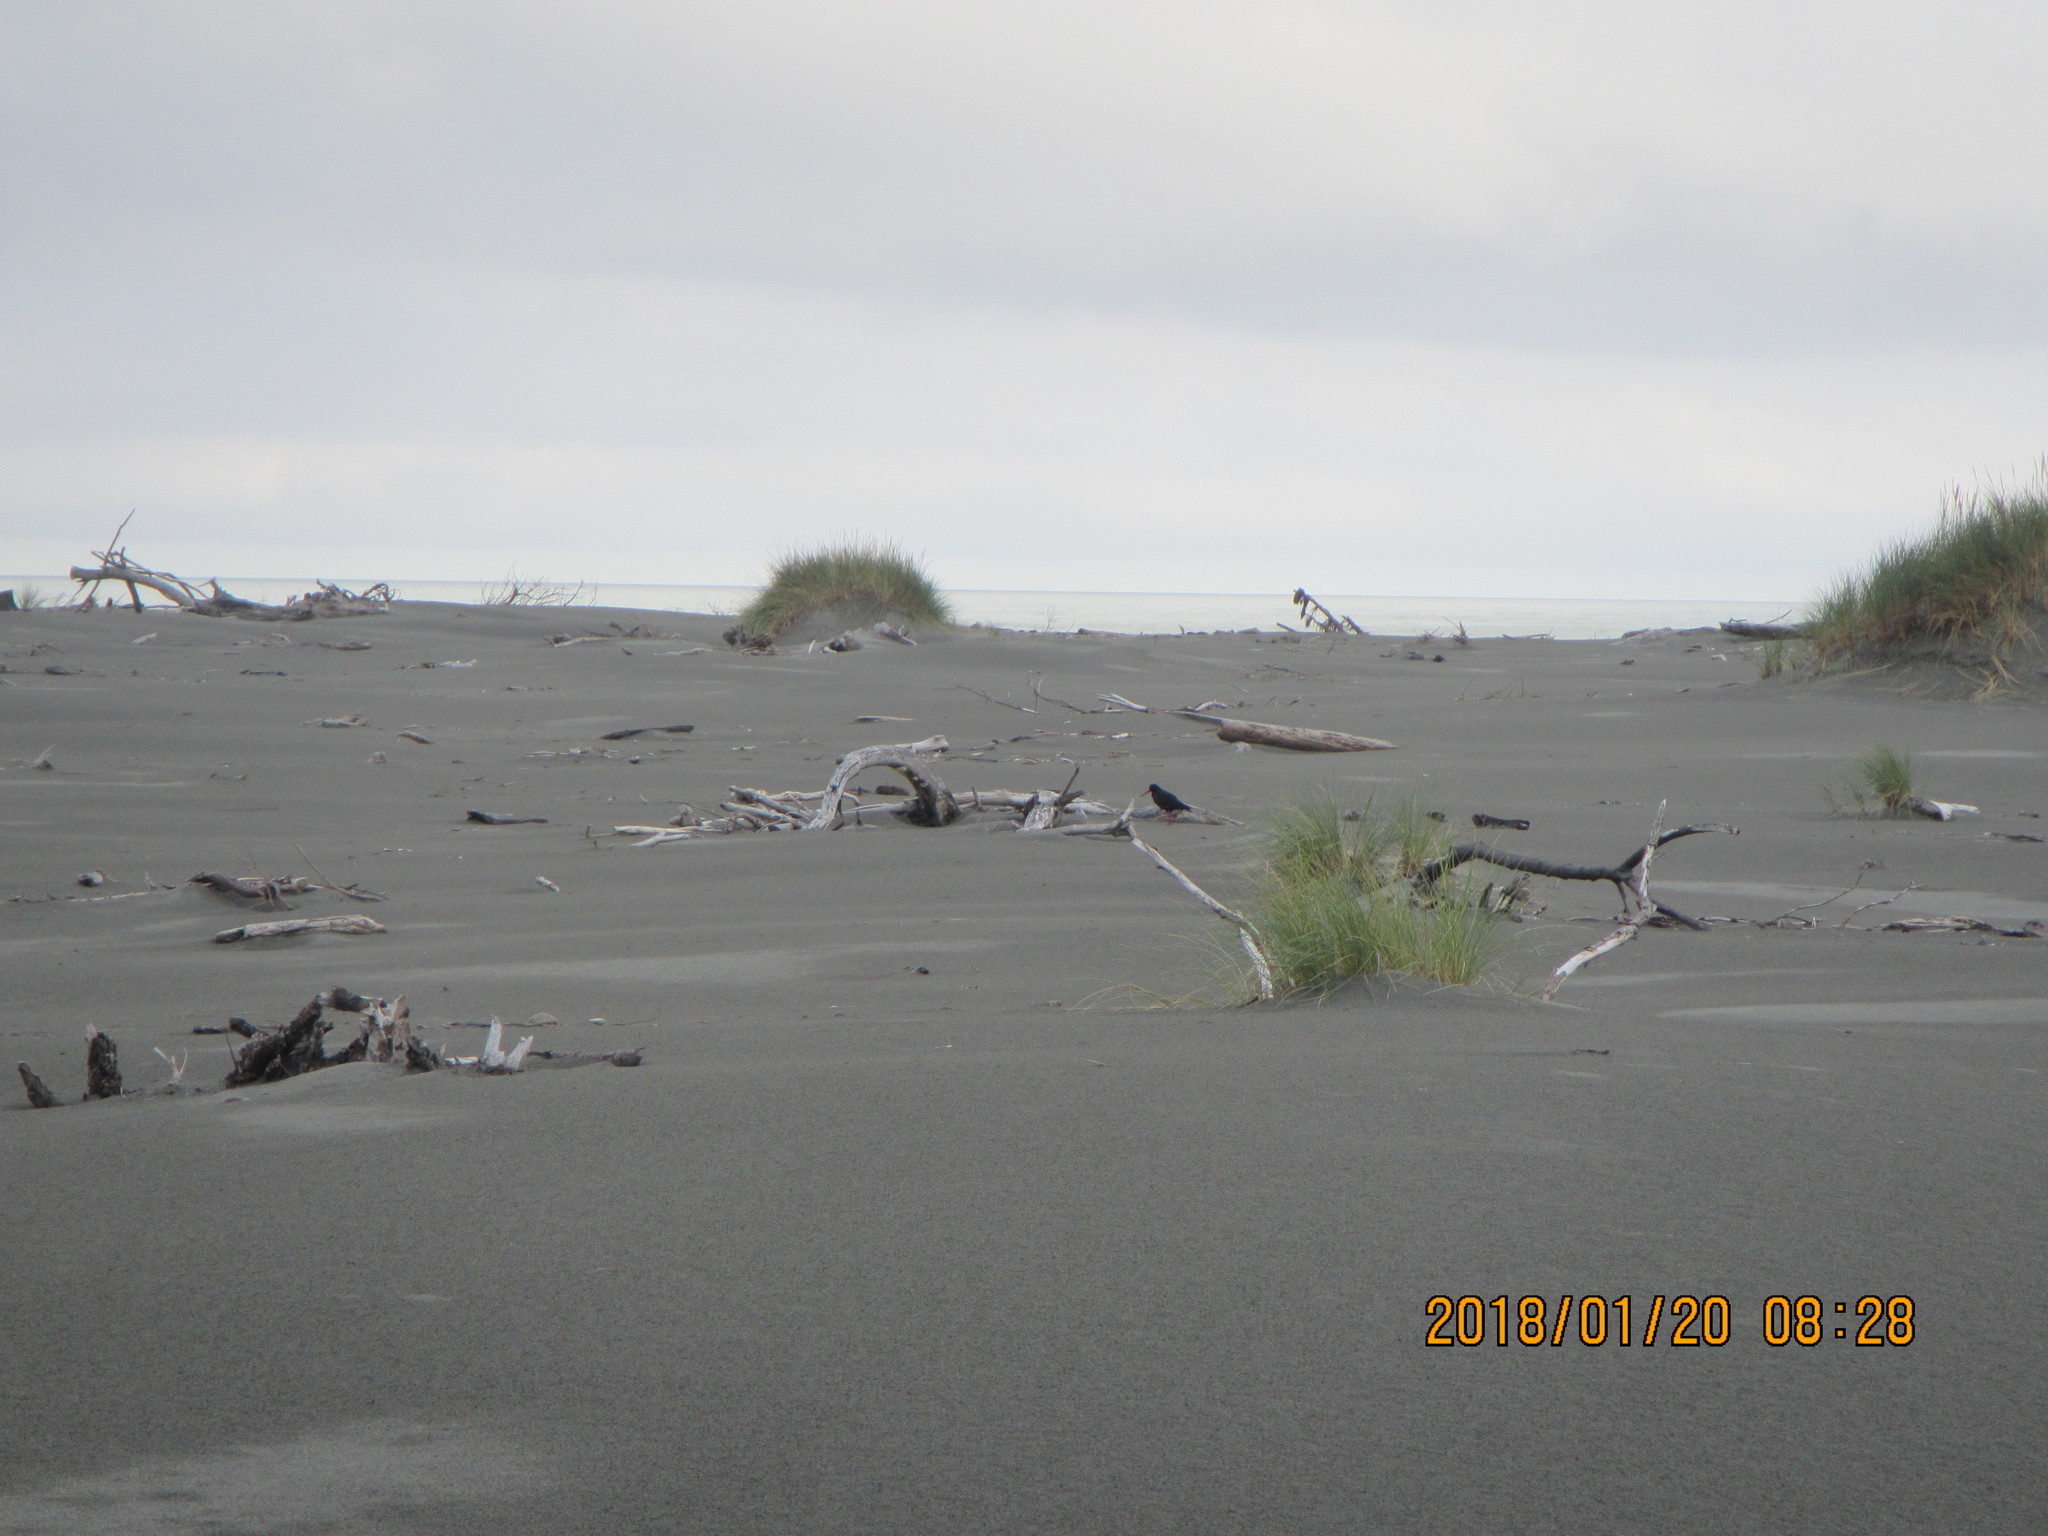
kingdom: Animalia
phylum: Chordata
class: Aves
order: Charadriiformes
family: Haematopodidae
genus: Haematopus
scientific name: Haematopus unicolor
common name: Variable oystercatcher
